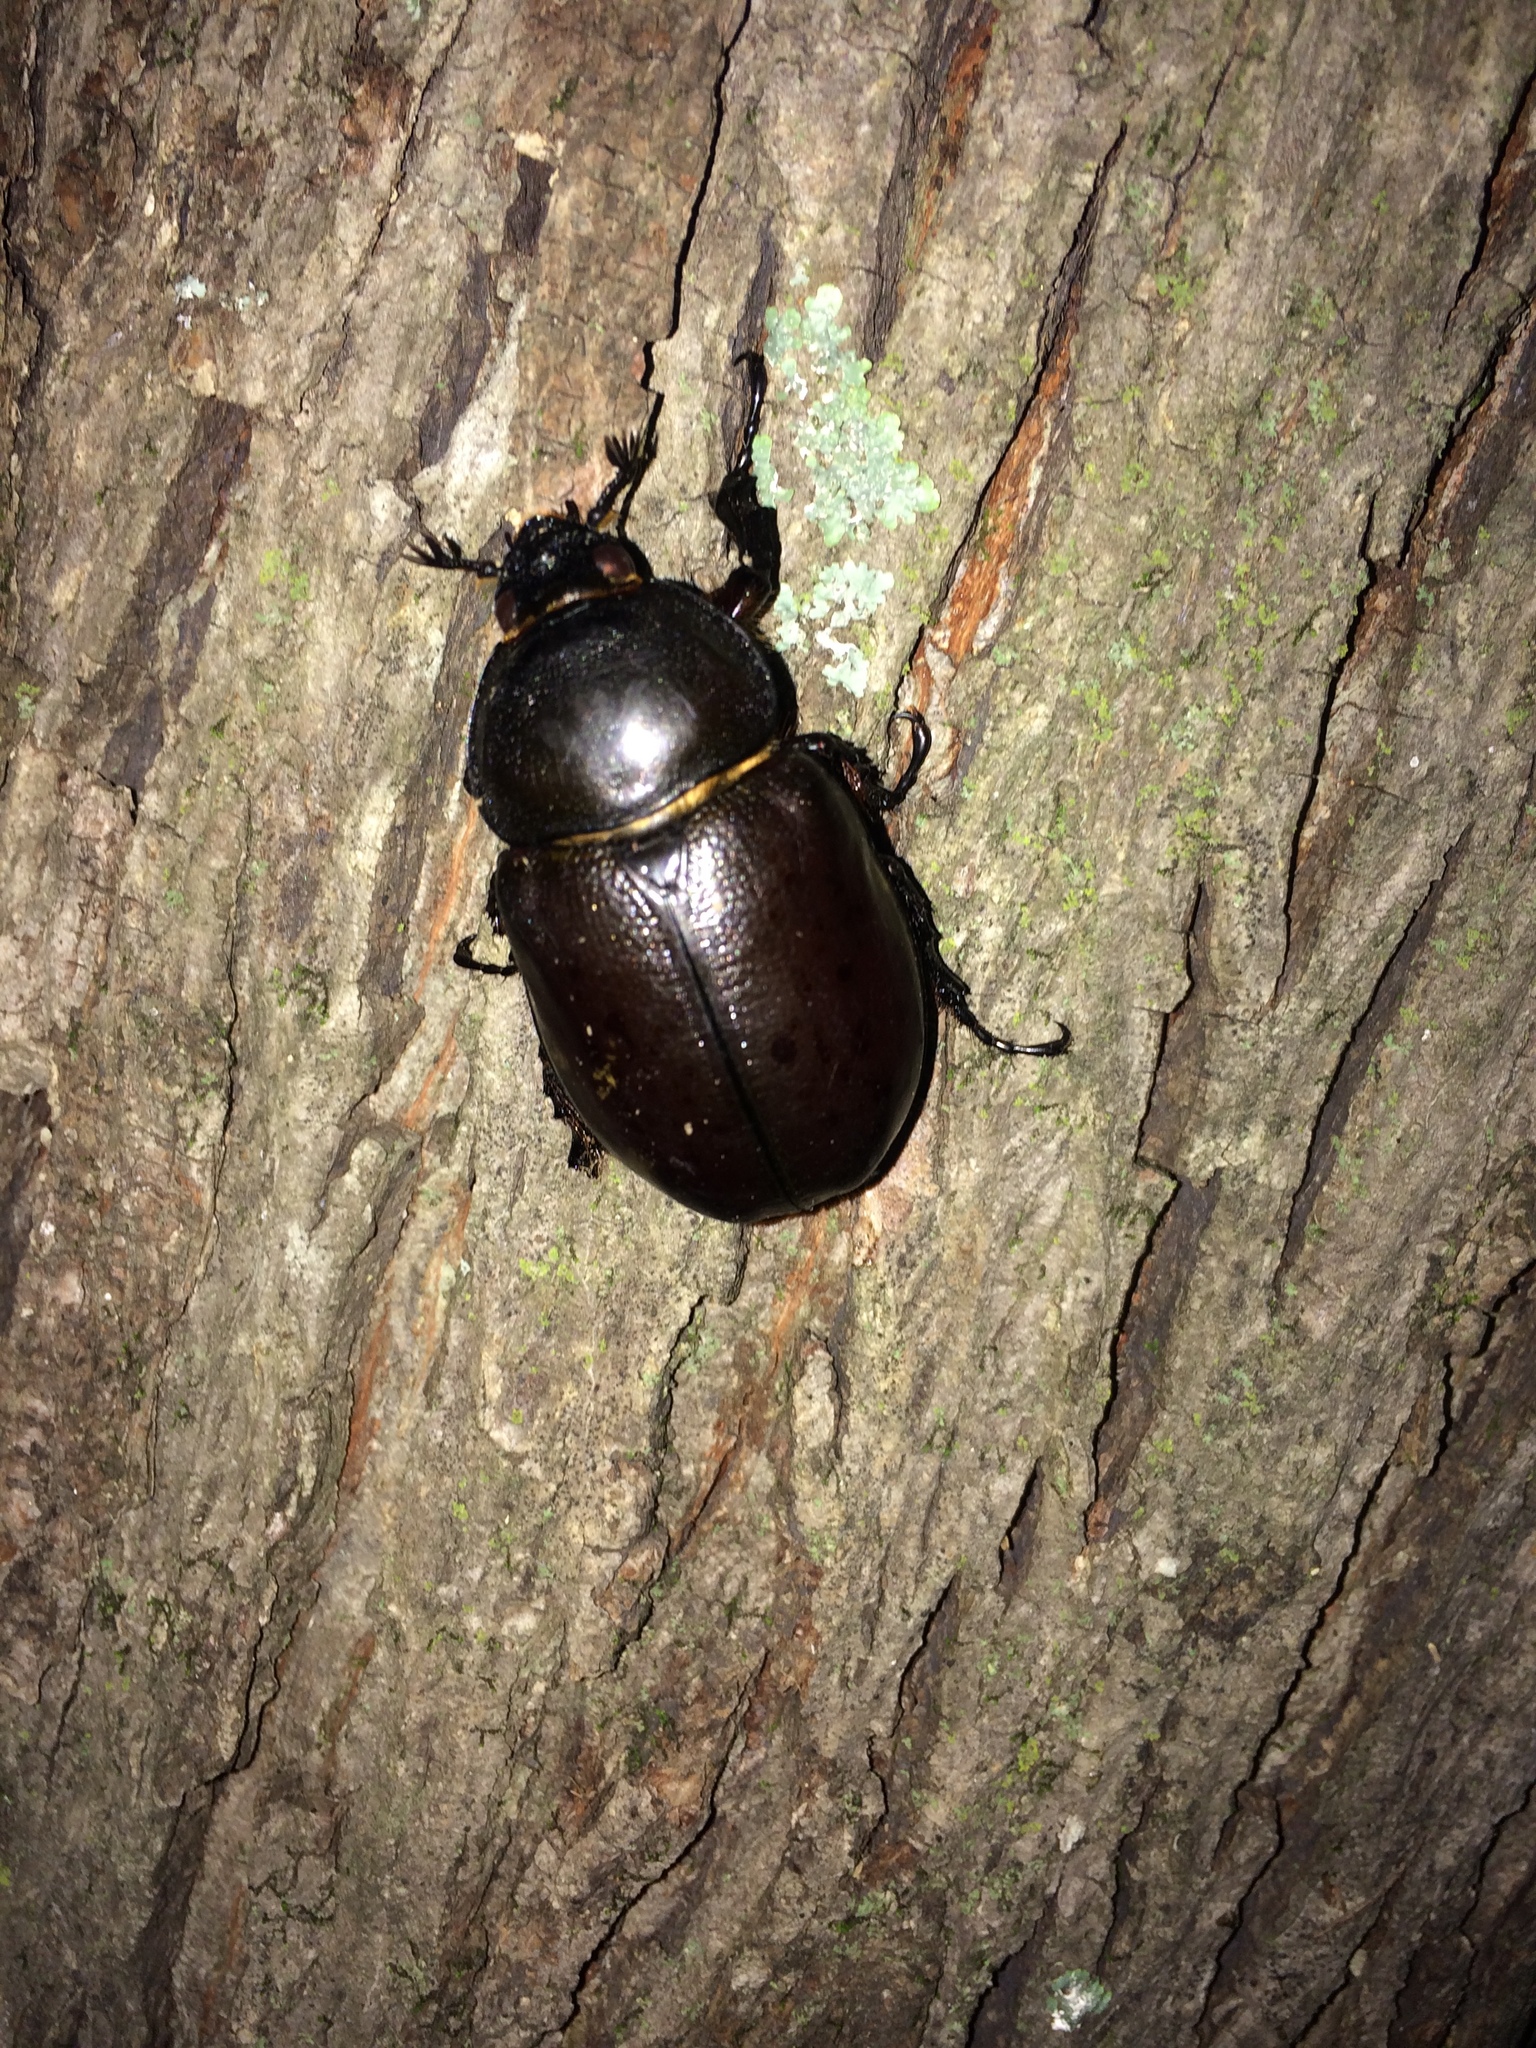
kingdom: Animalia
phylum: Arthropoda
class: Insecta
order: Coleoptera
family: Scarabaeidae
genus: Dynastes
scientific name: Dynastes tityus
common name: Eastern hercules beetle
